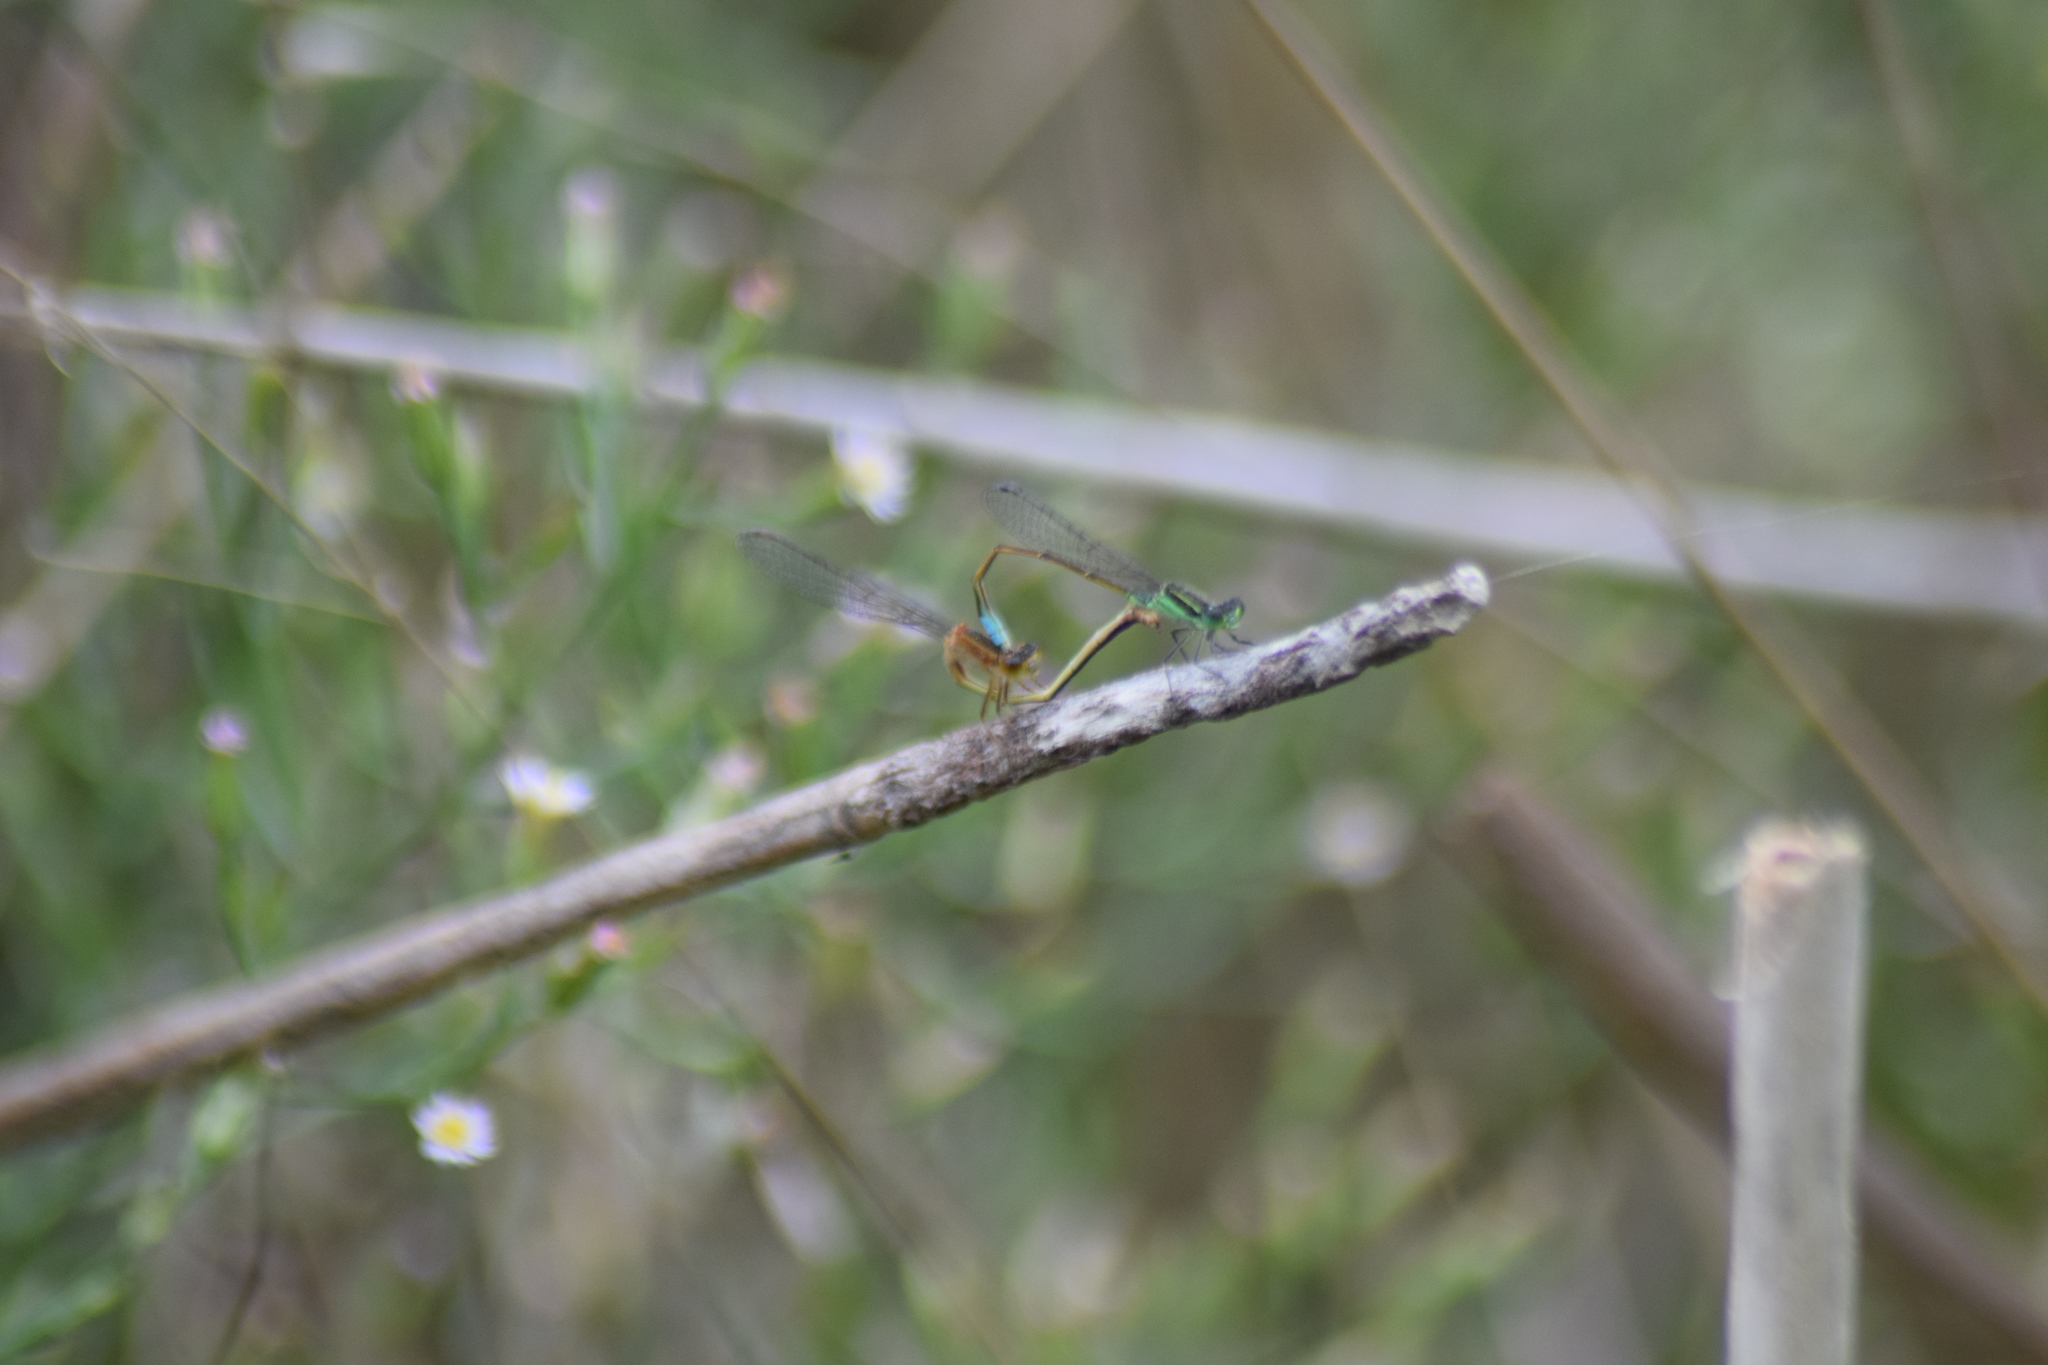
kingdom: Animalia
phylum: Arthropoda
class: Insecta
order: Odonata
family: Coenagrionidae
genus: Ischnura
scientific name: Ischnura ramburii
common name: Rambur's forktail
